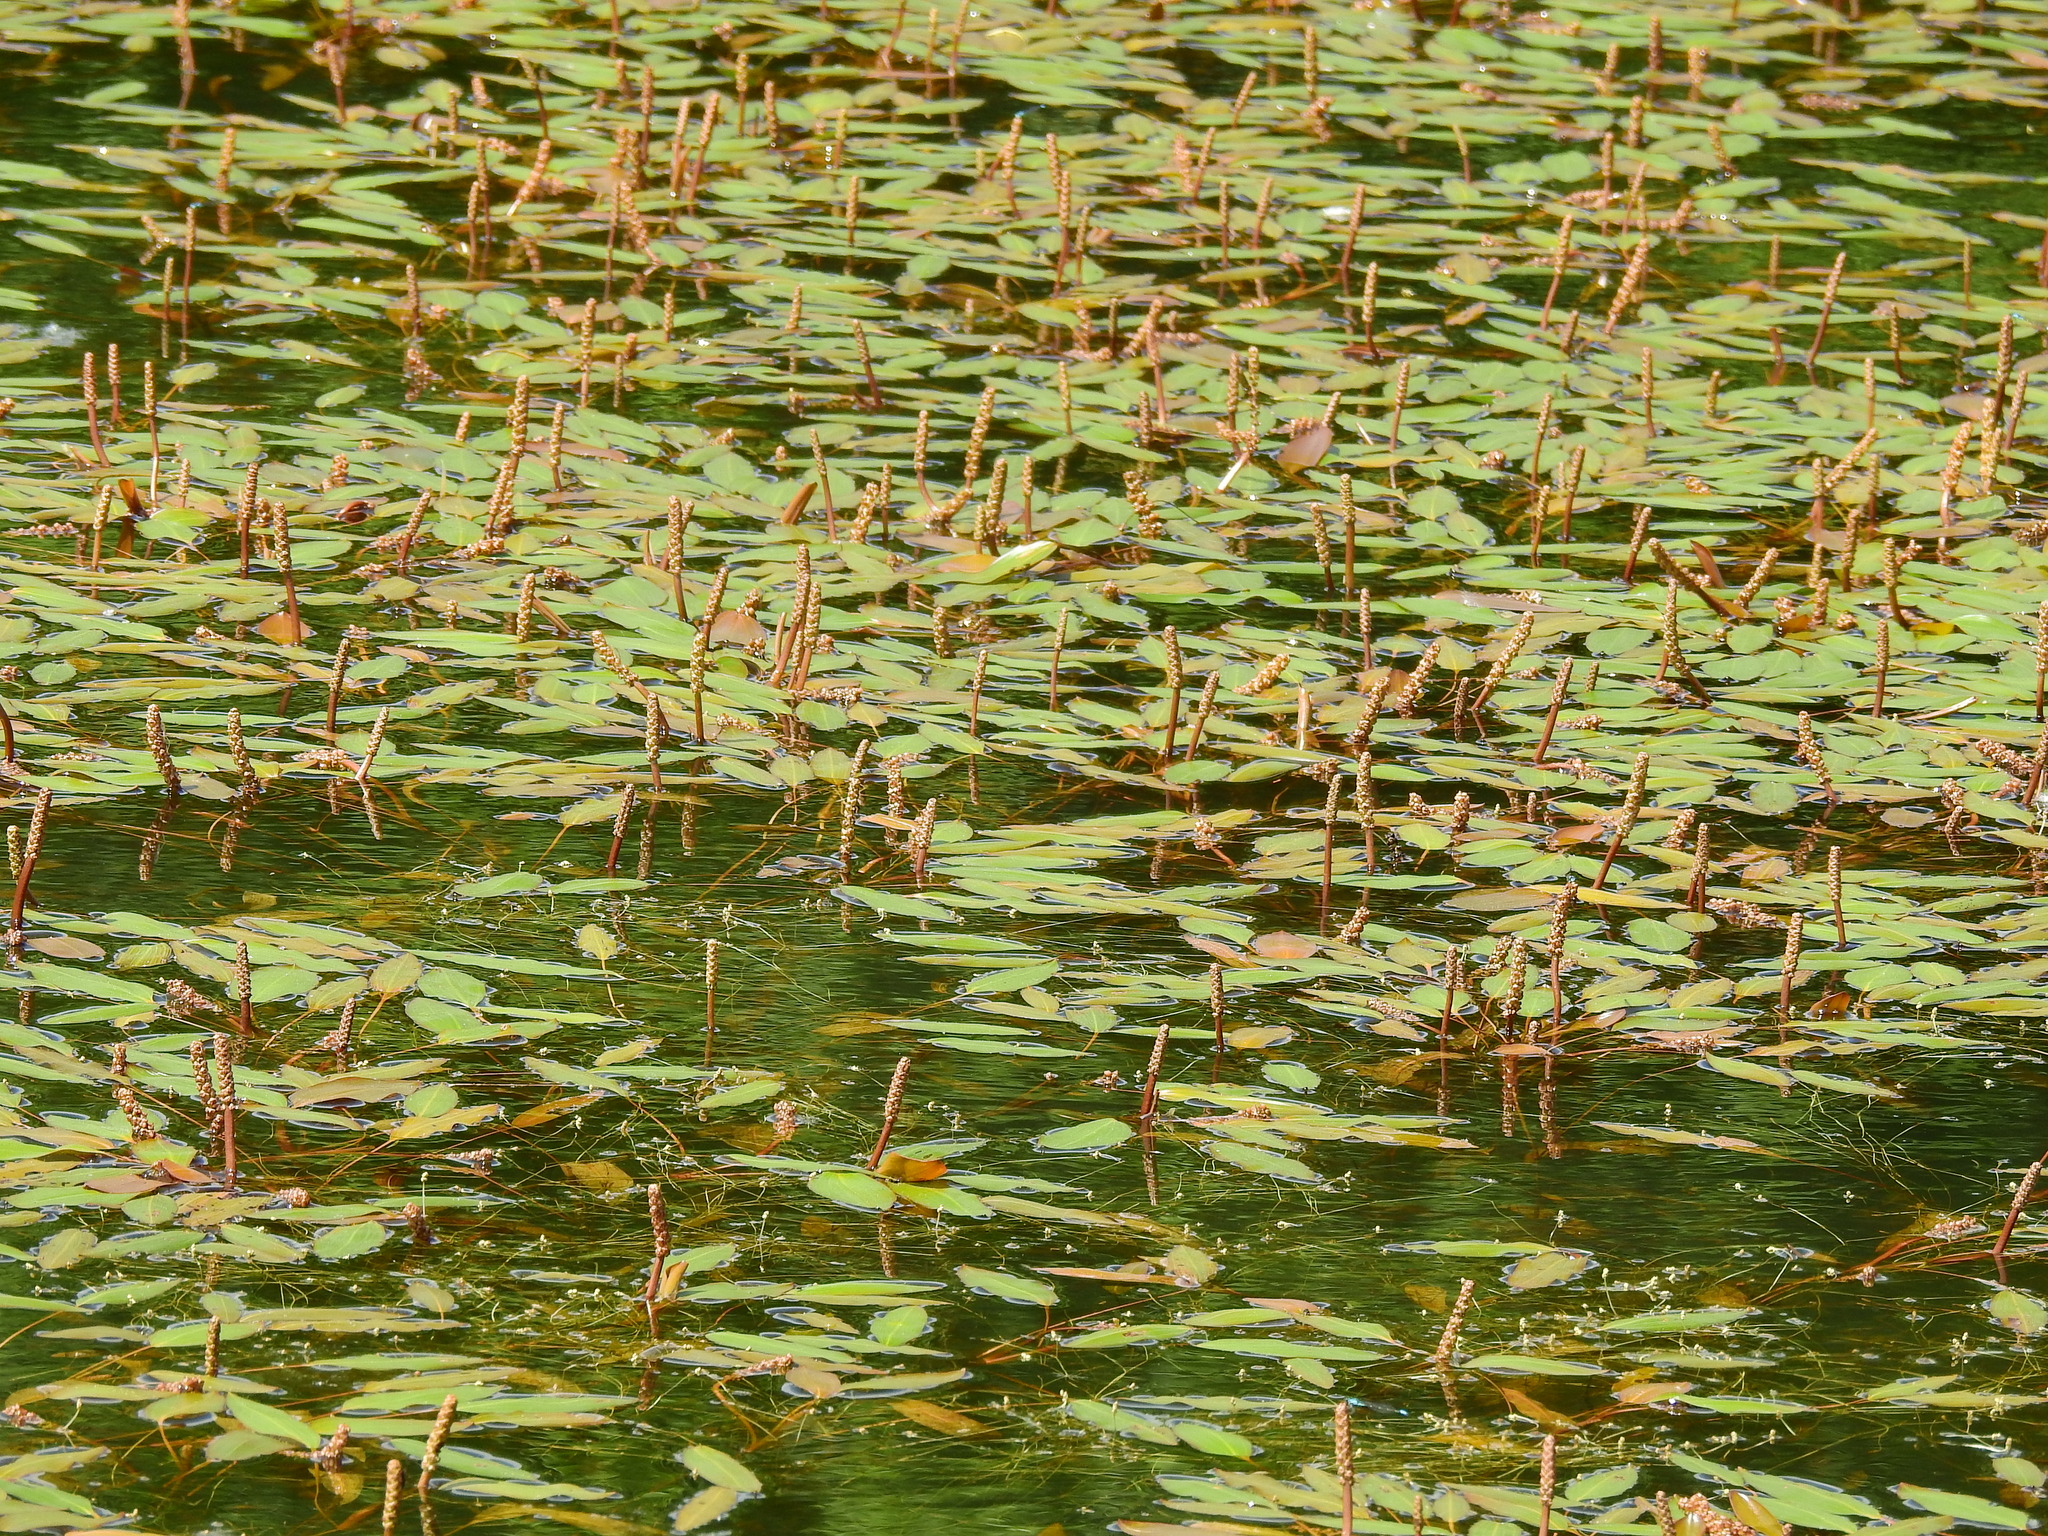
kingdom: Plantae
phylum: Tracheophyta
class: Liliopsida
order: Alismatales
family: Potamogetonaceae
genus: Potamogeton
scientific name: Potamogeton nodosus
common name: Loddon pondweed
